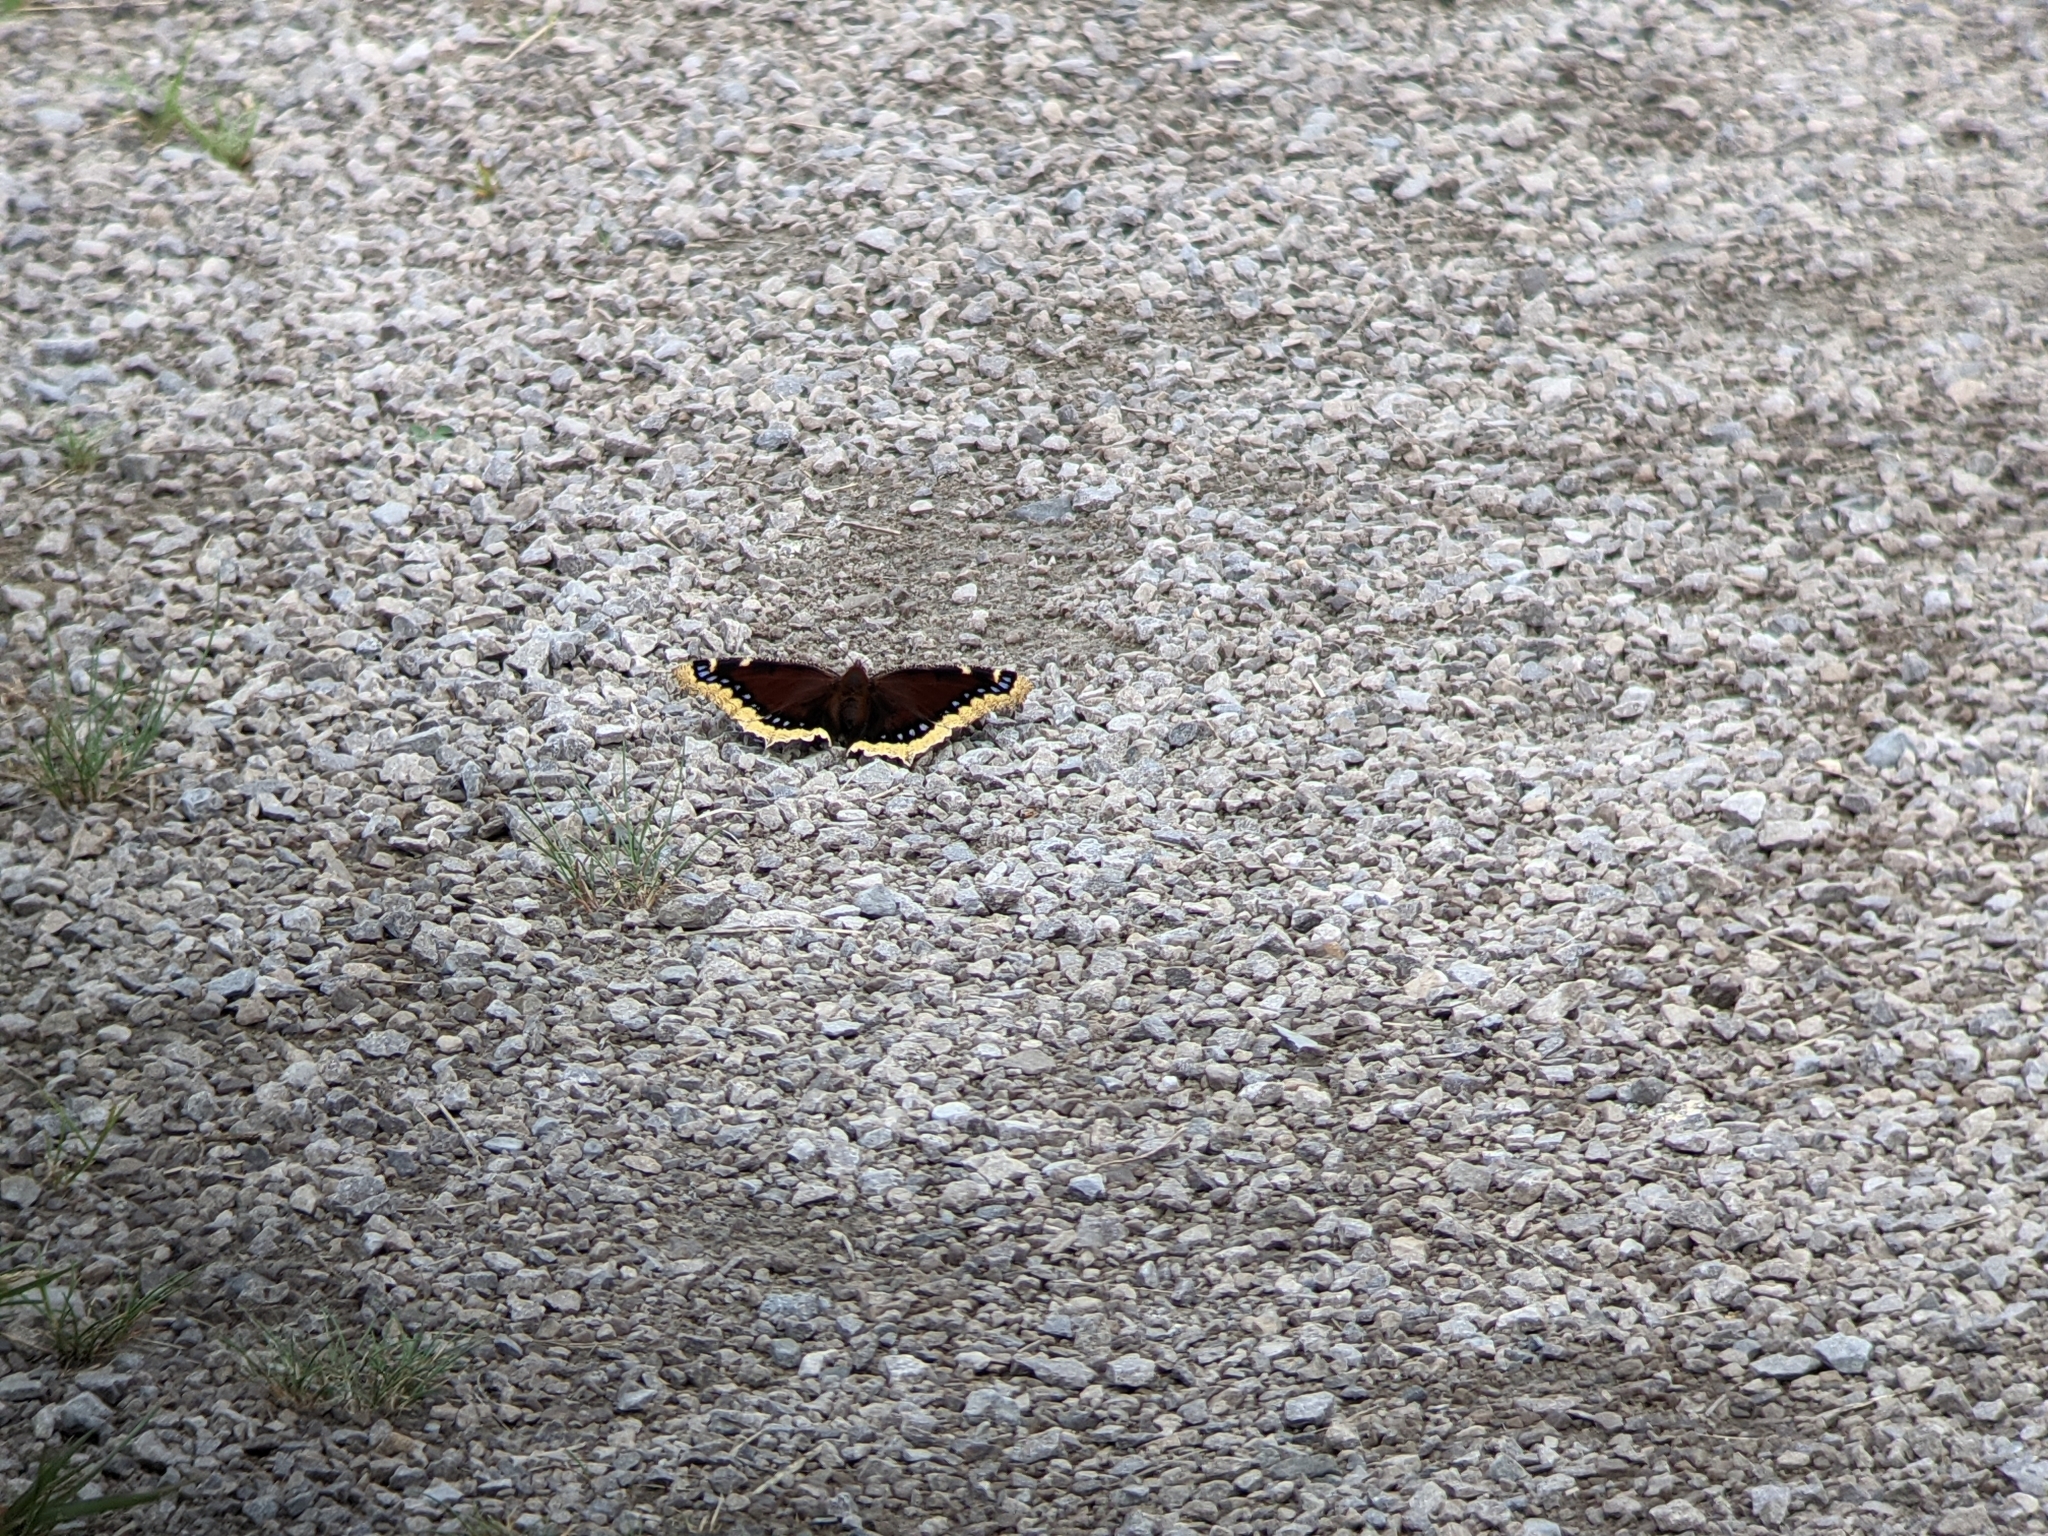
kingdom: Animalia
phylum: Arthropoda
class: Insecta
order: Lepidoptera
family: Nymphalidae
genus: Nymphalis
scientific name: Nymphalis antiopa
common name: Camberwell beauty
